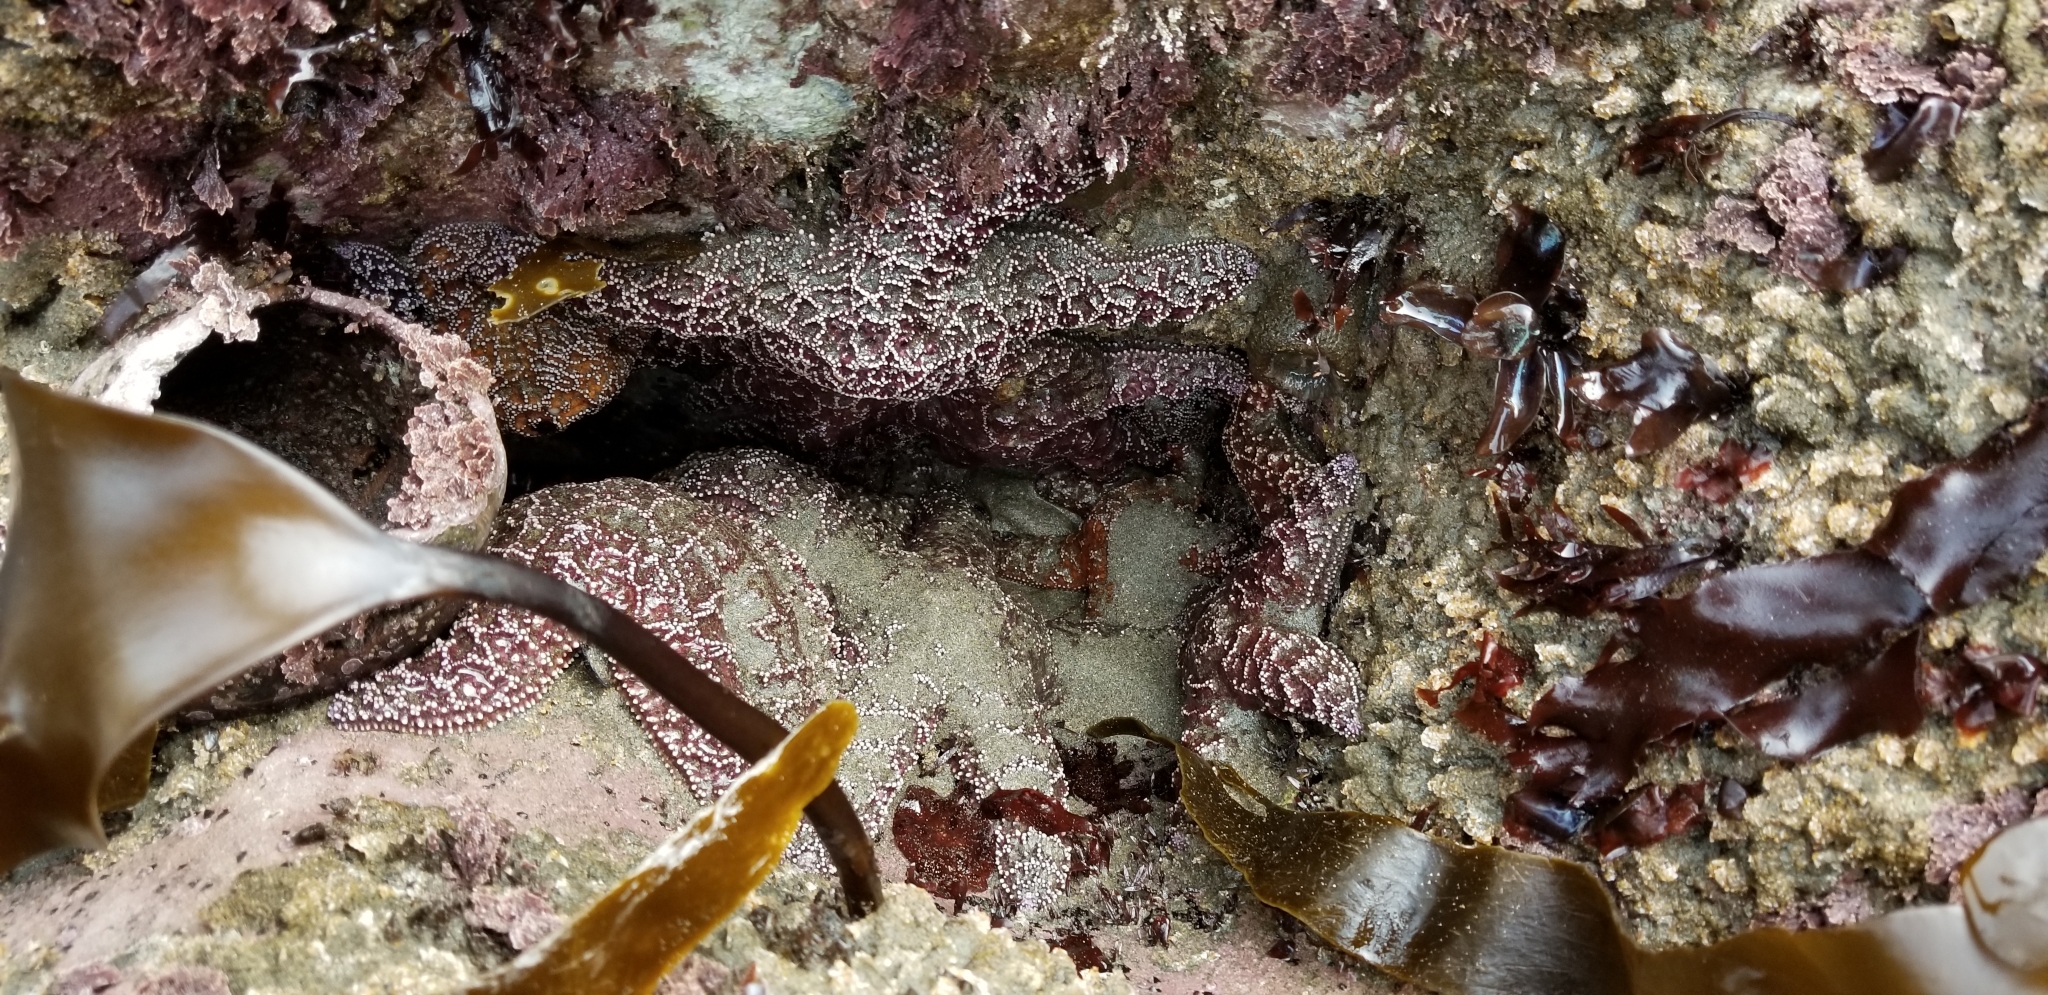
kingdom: Animalia
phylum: Echinodermata
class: Asteroidea
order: Forcipulatida
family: Asteriidae
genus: Pisaster
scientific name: Pisaster ochraceus
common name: Ochre stars
